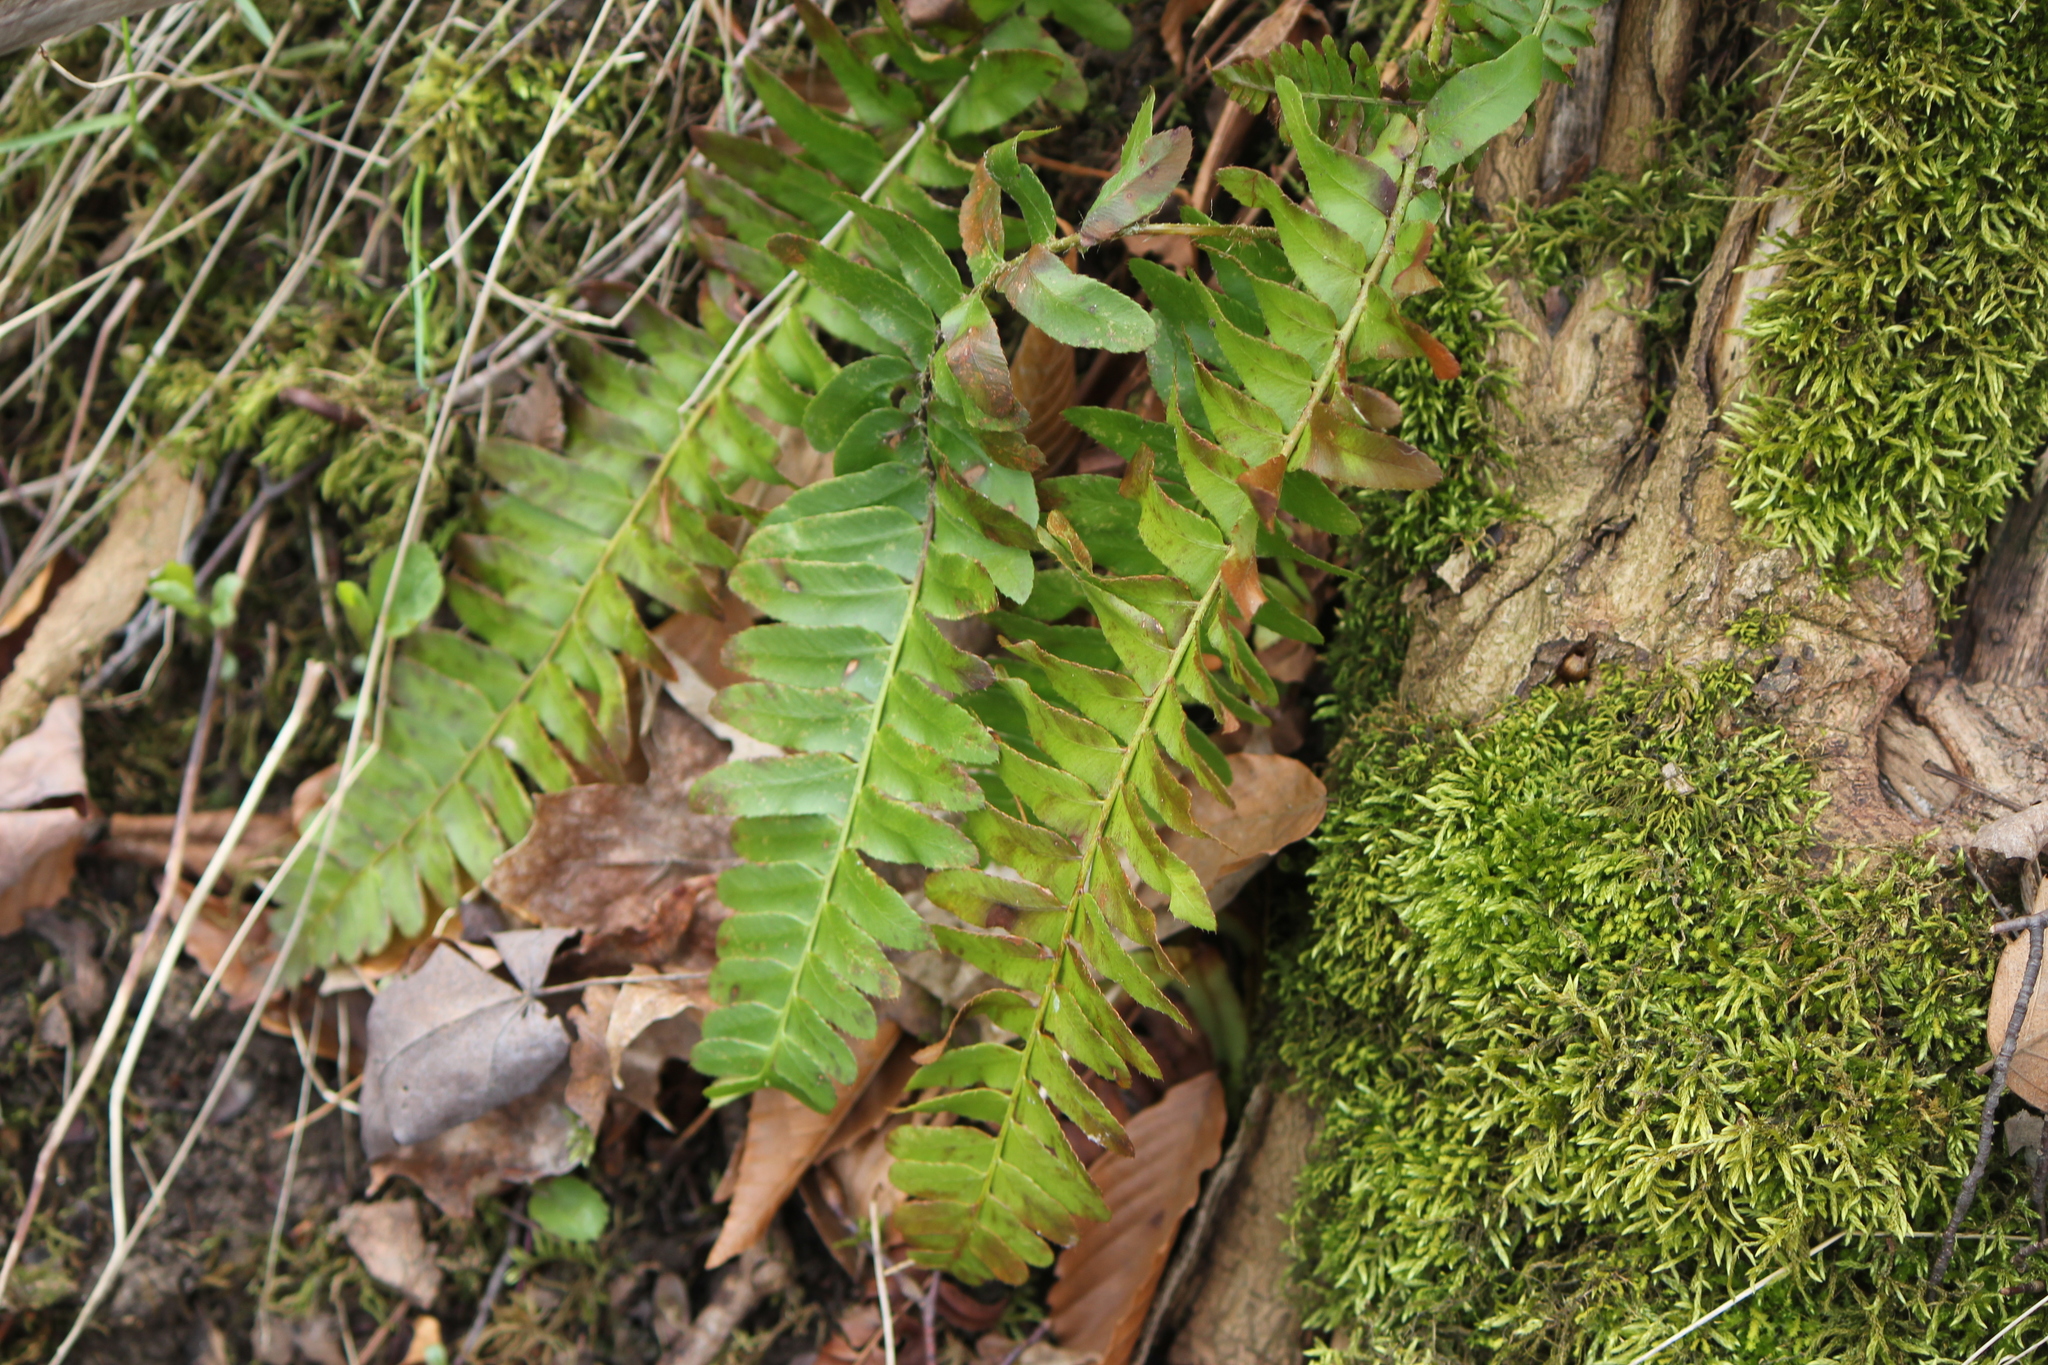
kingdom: Plantae
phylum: Tracheophyta
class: Polypodiopsida
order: Polypodiales
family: Dryopteridaceae
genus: Polystichum
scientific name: Polystichum acrostichoides
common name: Christmas fern
